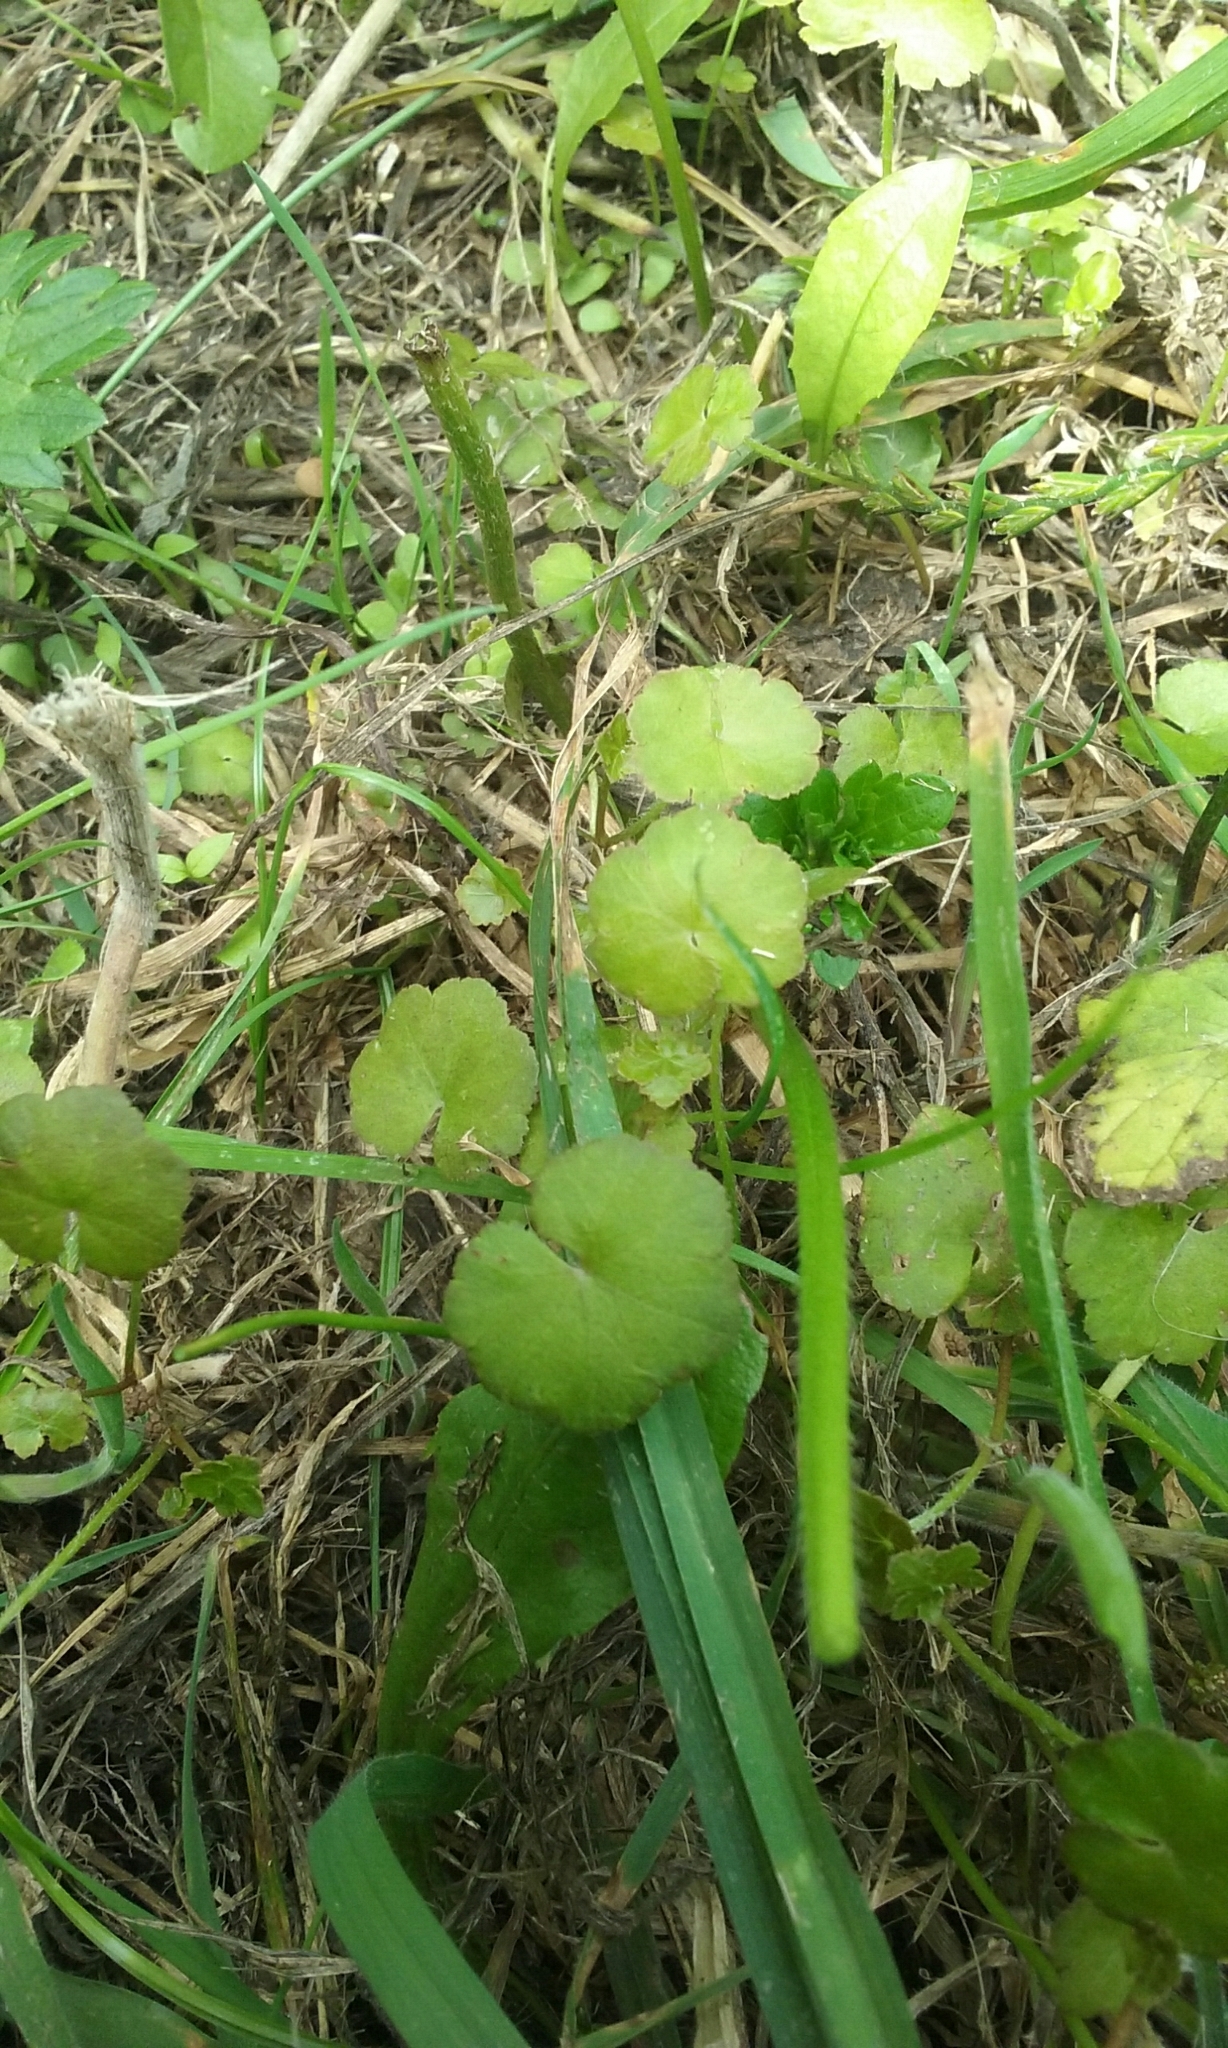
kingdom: Plantae
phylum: Tracheophyta
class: Magnoliopsida
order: Apiales
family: Araliaceae
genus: Hydrocotyle
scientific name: Hydrocotyle novae-zeelandiae
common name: New zealand pennywort
